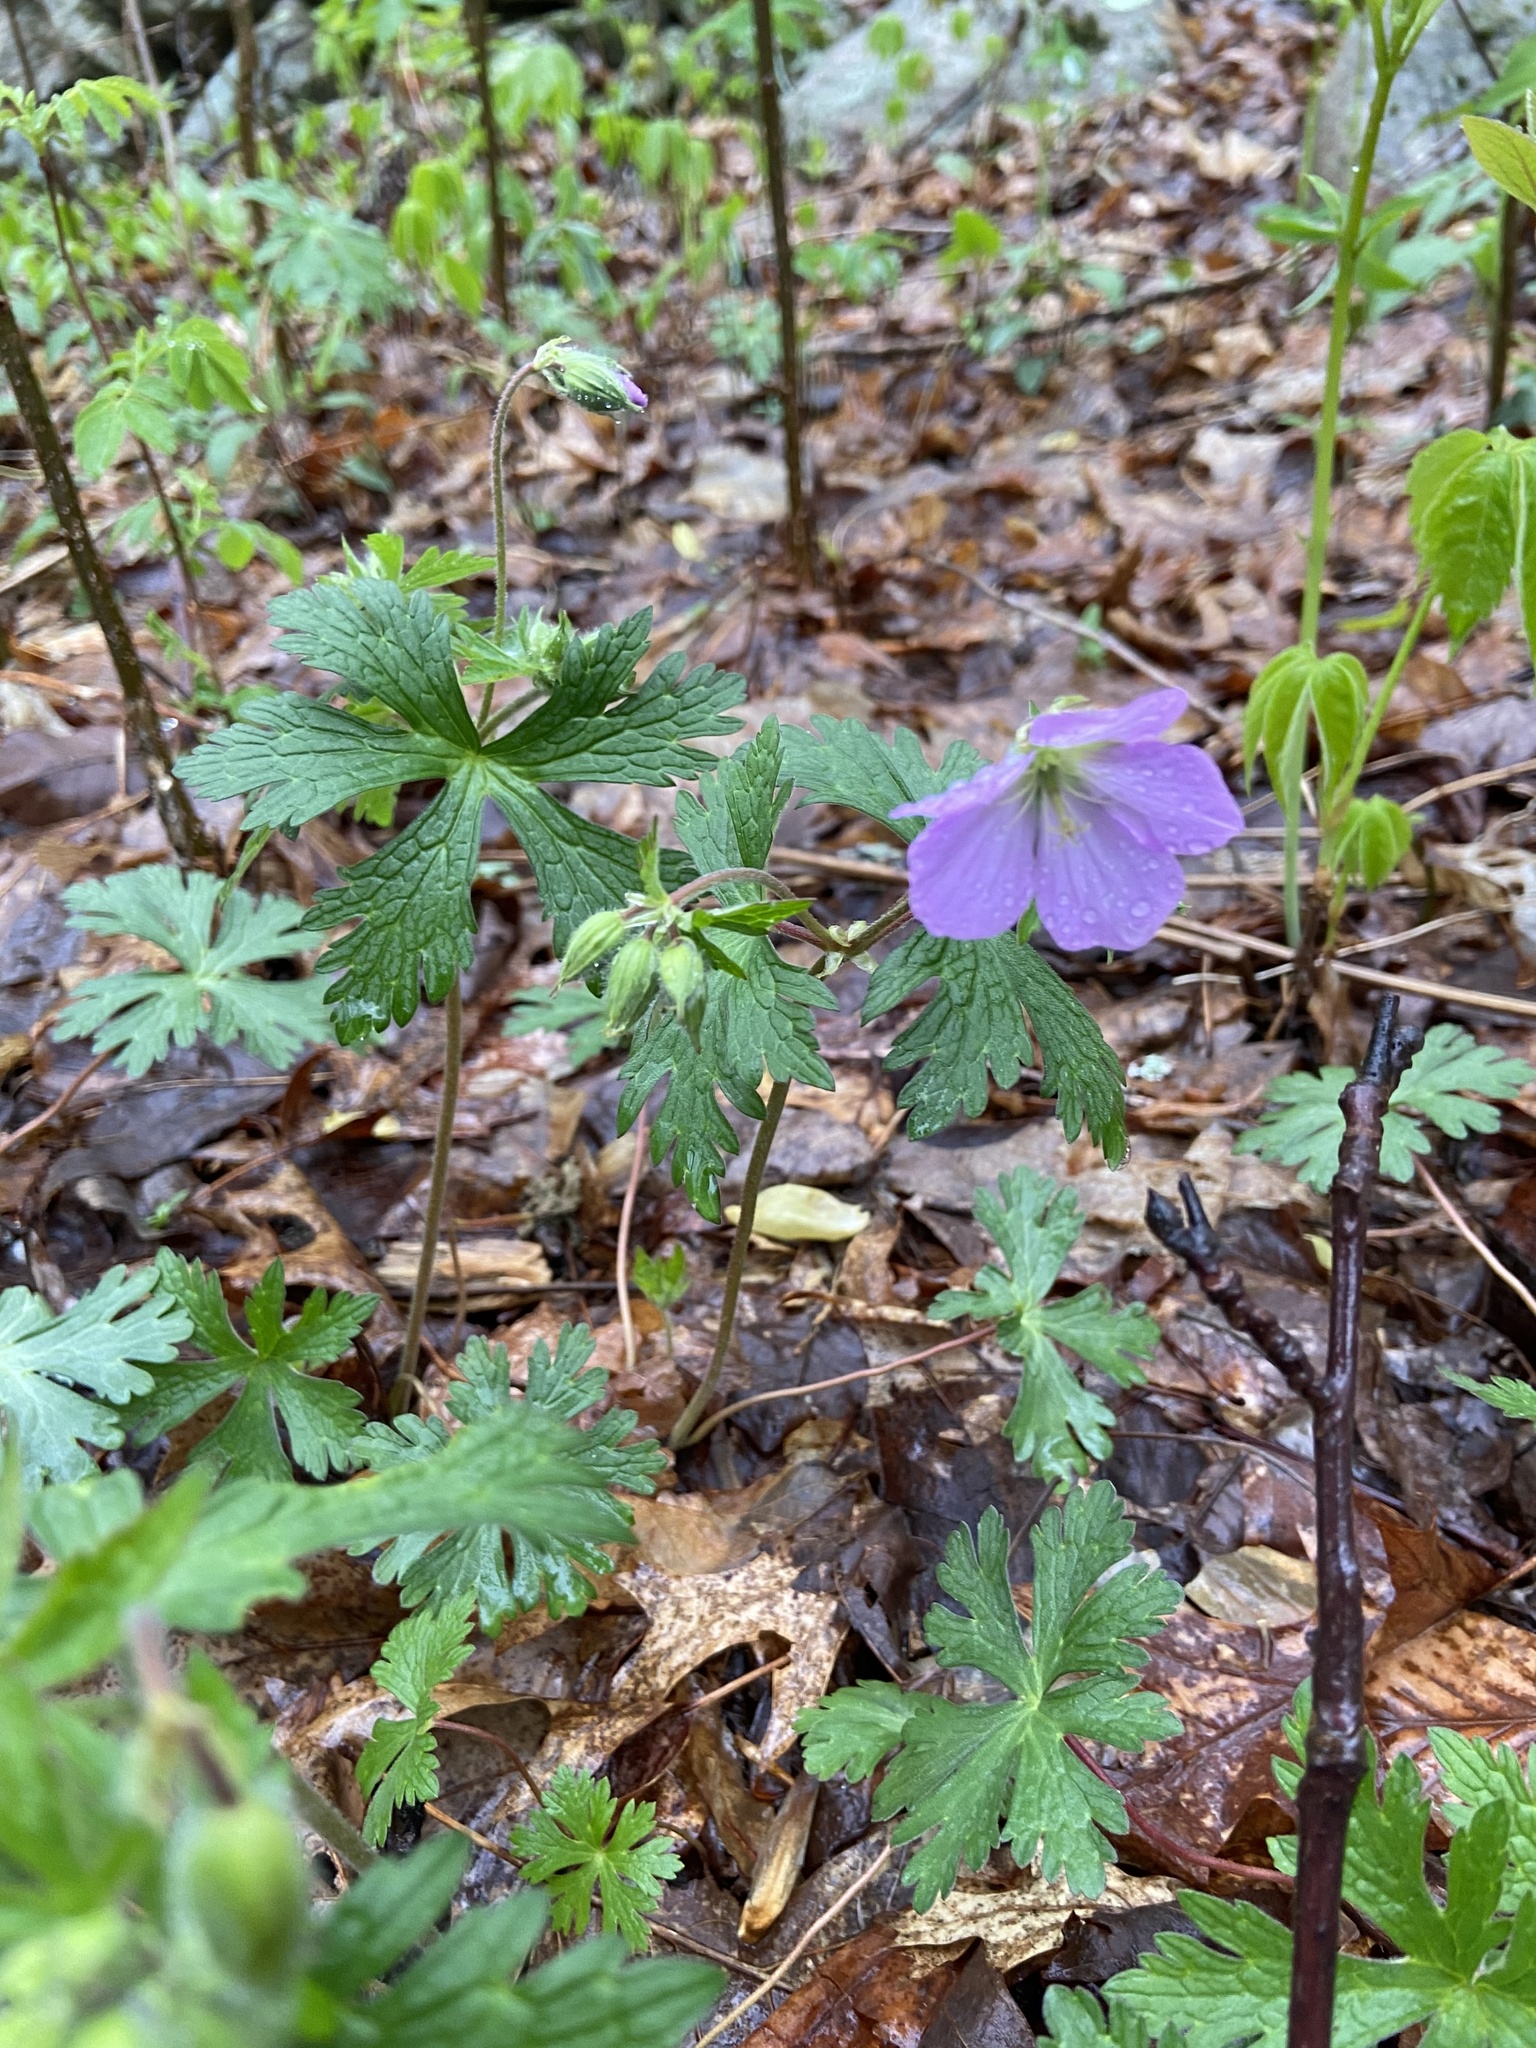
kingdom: Plantae
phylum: Tracheophyta
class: Magnoliopsida
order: Geraniales
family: Geraniaceae
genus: Geranium
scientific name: Geranium maculatum
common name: Spotted geranium
